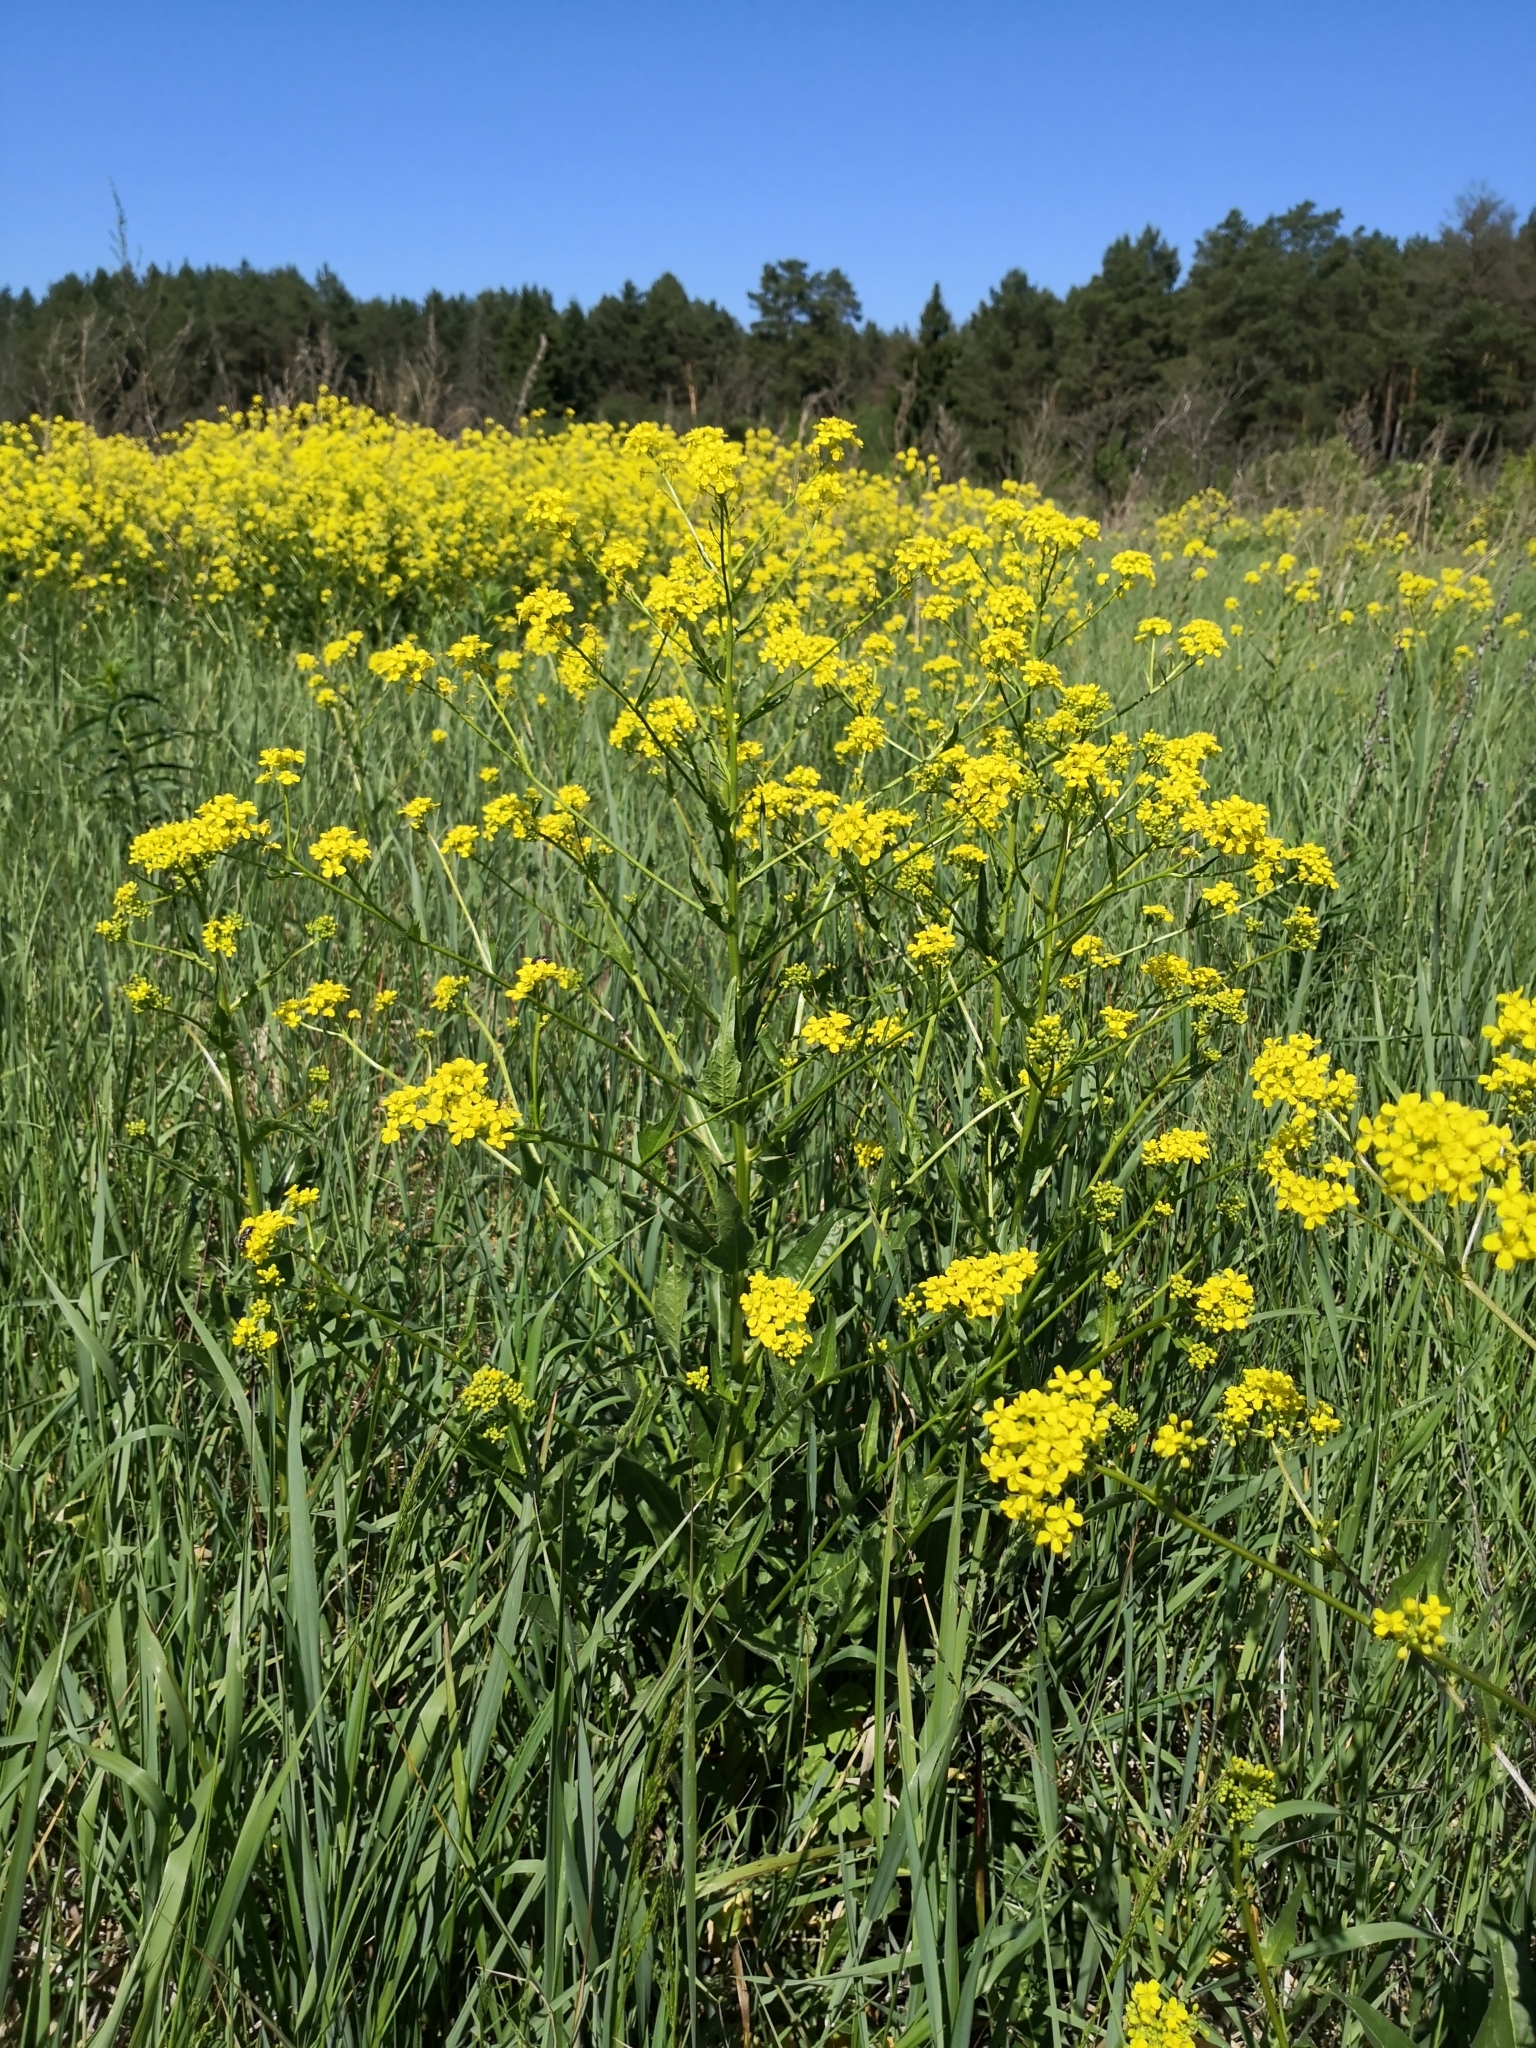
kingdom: Plantae
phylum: Tracheophyta
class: Magnoliopsida
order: Brassicales
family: Brassicaceae
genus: Bunias
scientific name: Bunias orientalis
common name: Warty-cabbage
